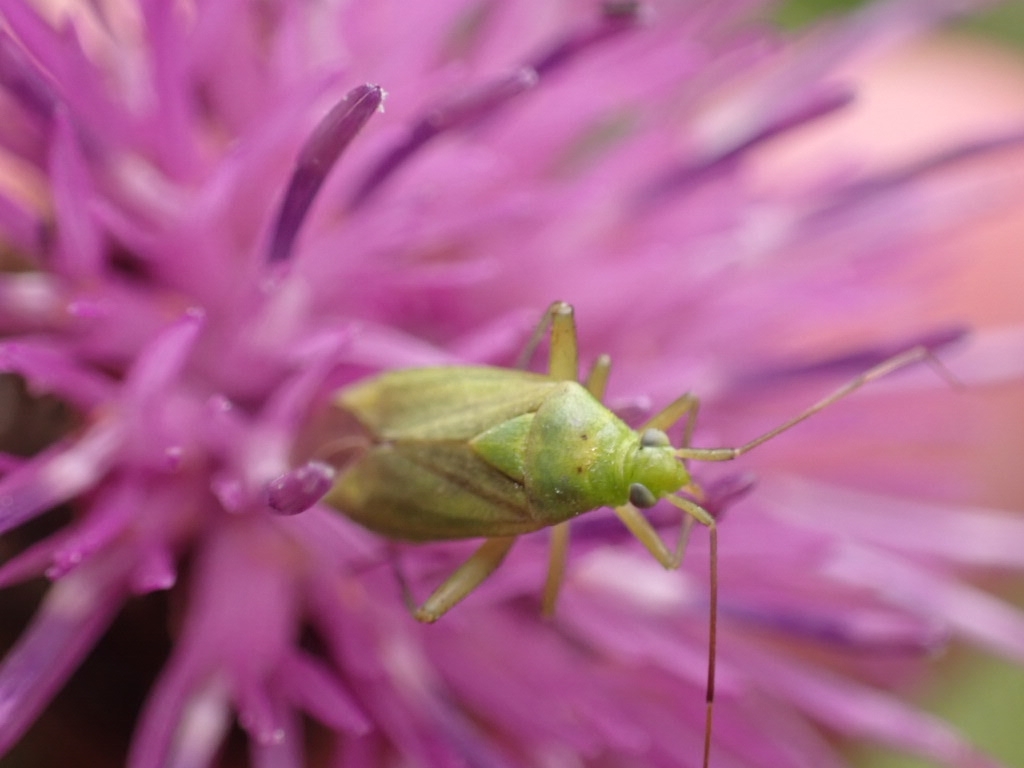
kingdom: Animalia
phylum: Arthropoda
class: Insecta
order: Hemiptera
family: Miridae
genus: Closterotomus
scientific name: Closterotomus norvegicus
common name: Plant bug
